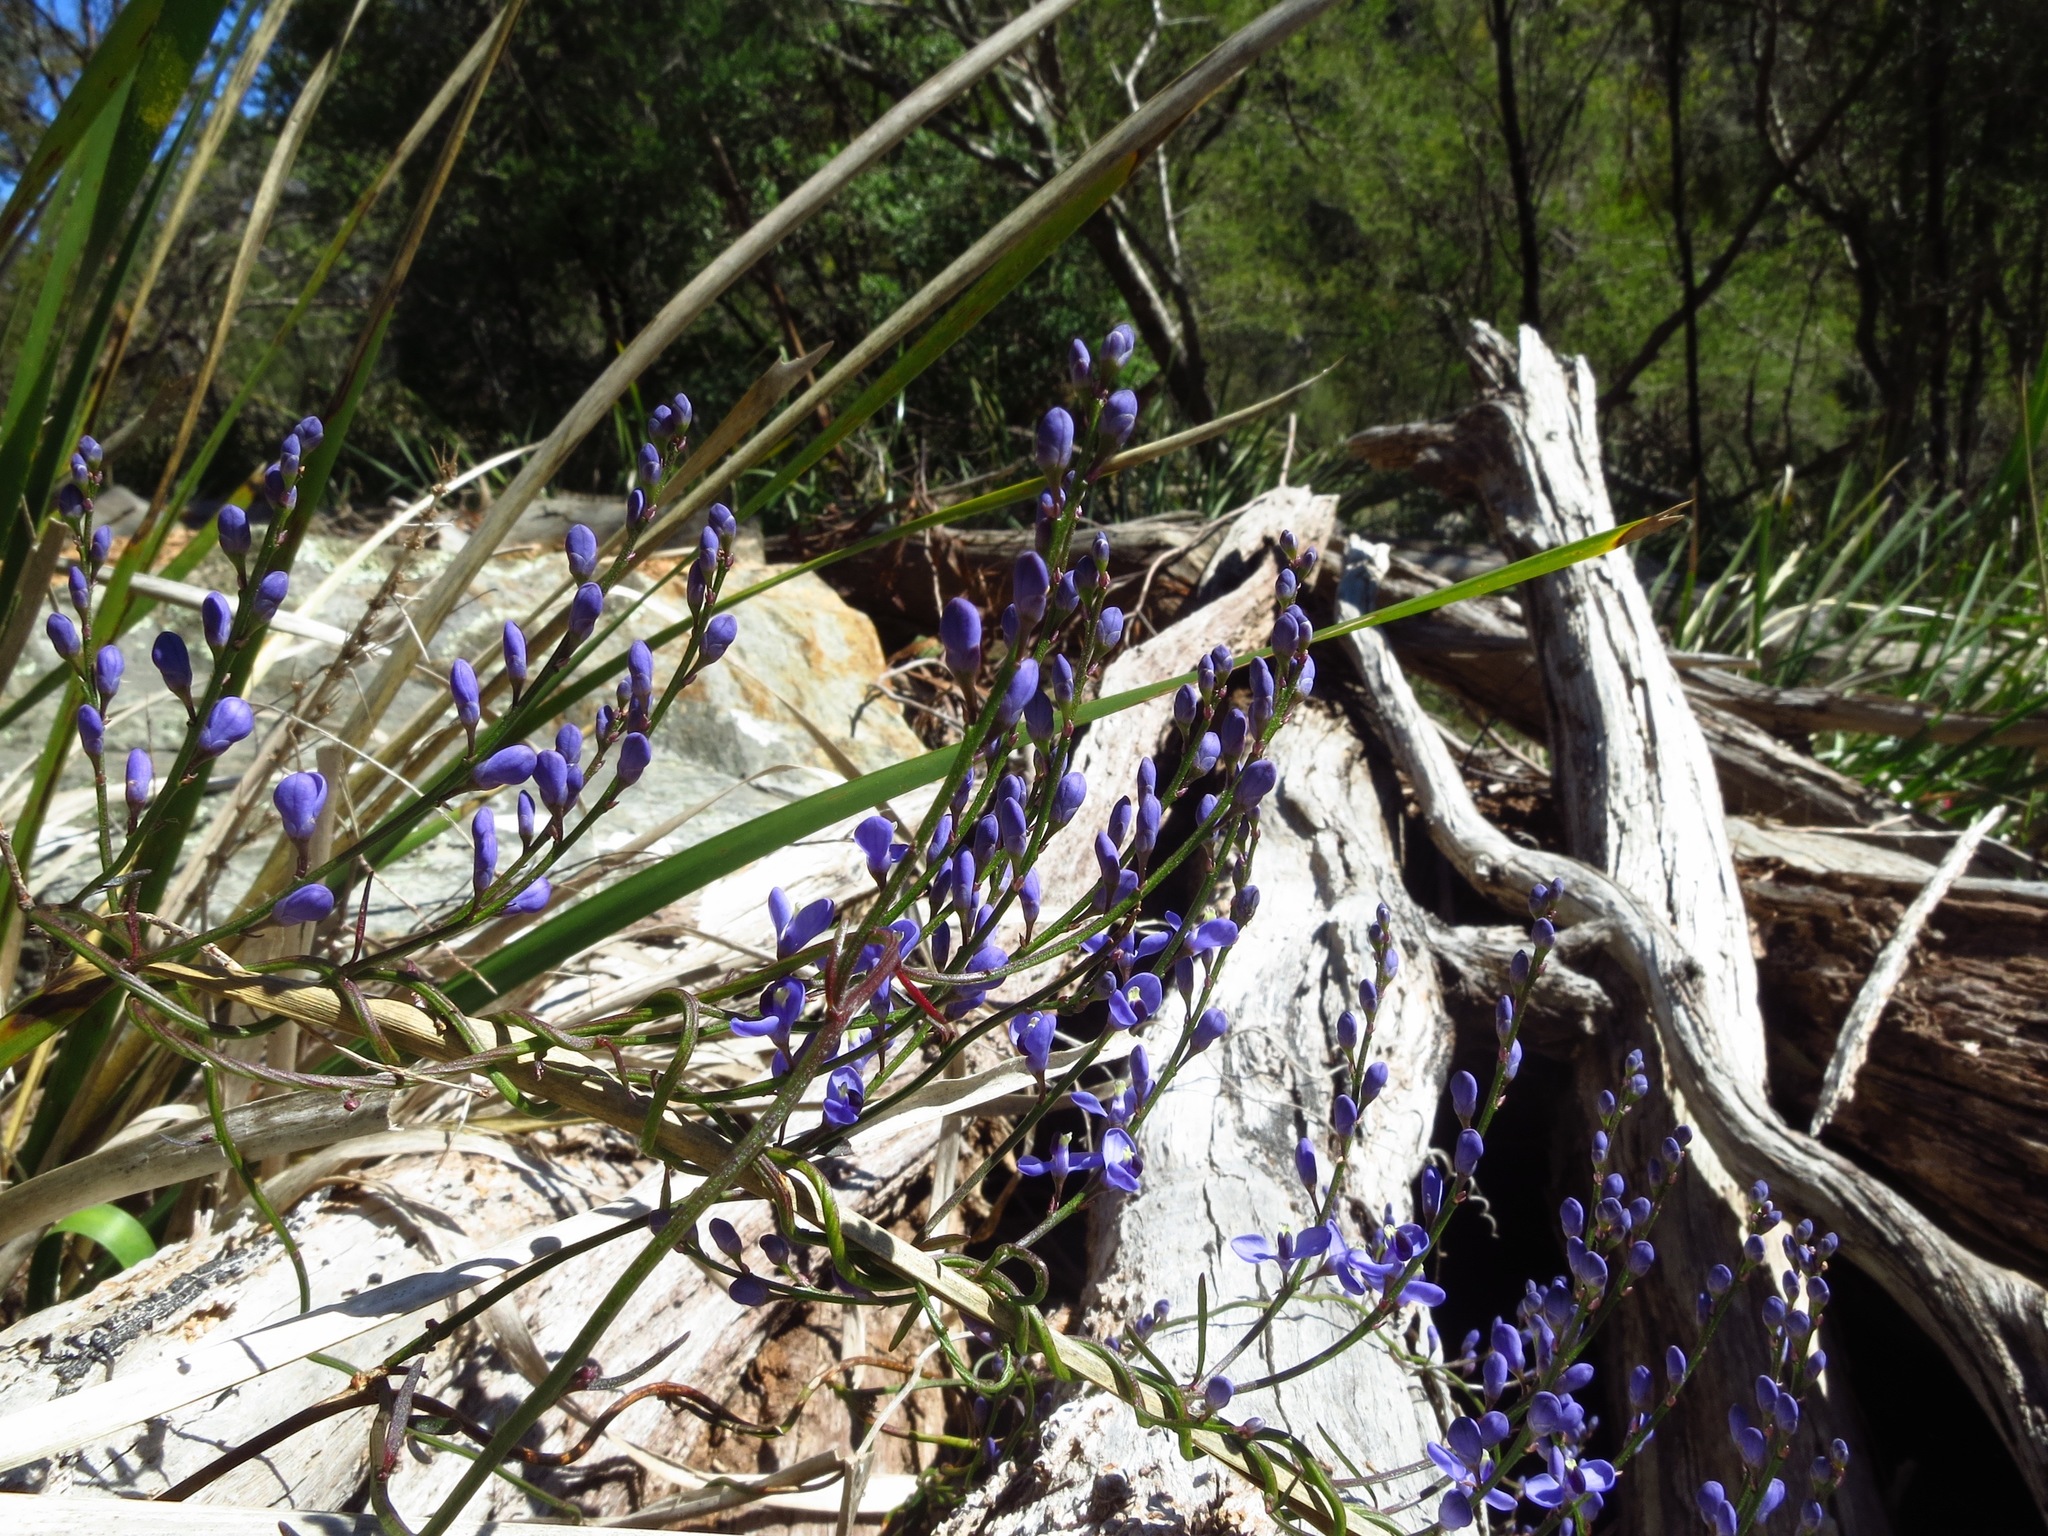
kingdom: Plantae
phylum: Tracheophyta
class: Magnoliopsida
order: Fabales
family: Polygalaceae
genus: Comesperma
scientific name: Comesperma volubile
